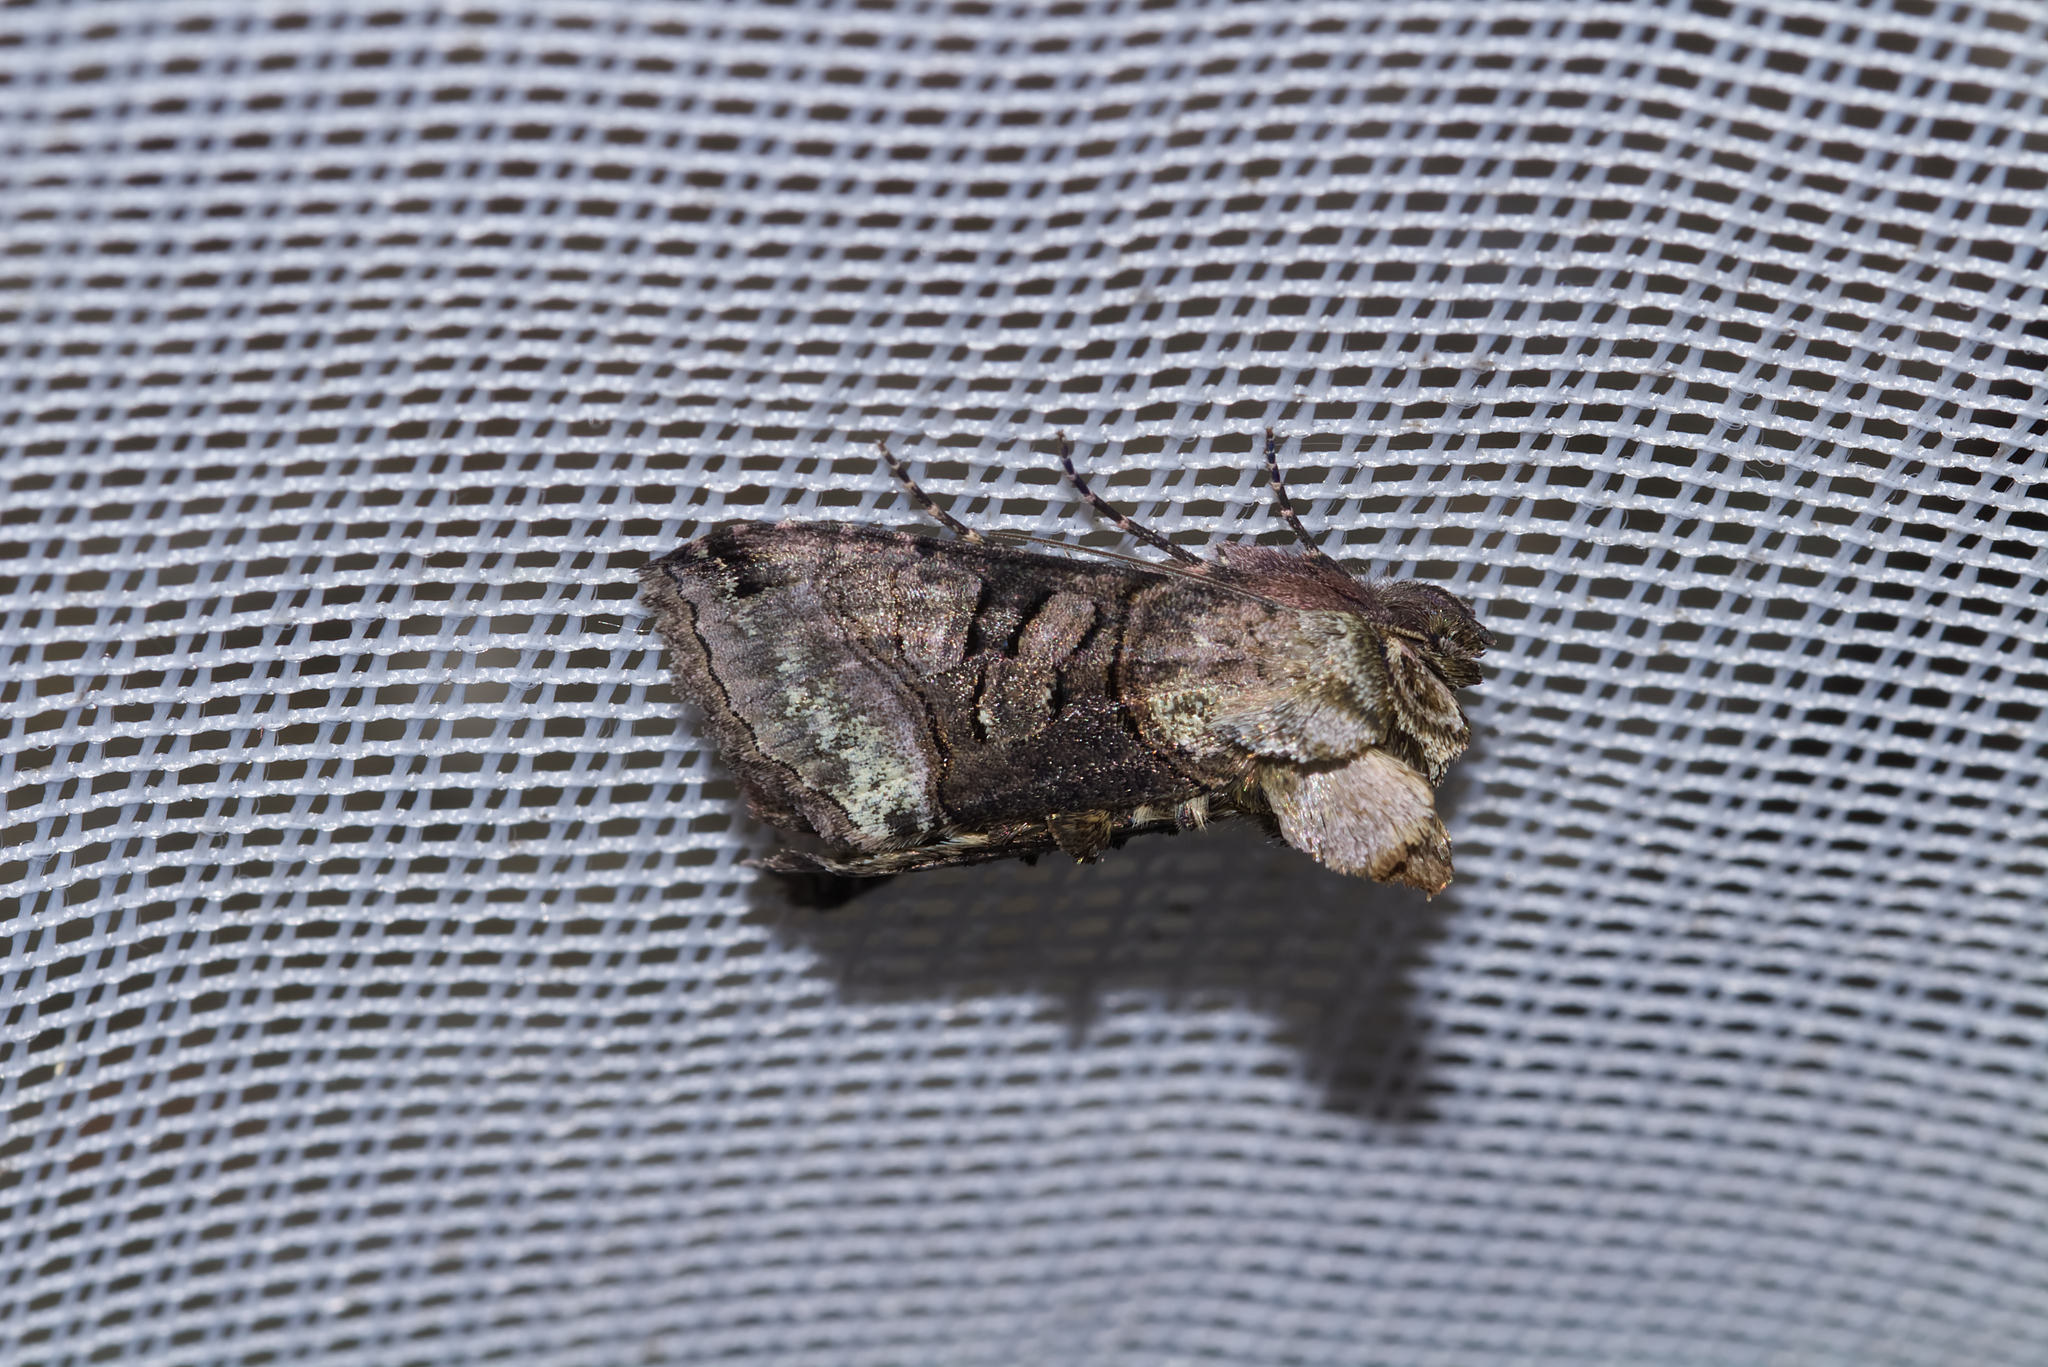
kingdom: Animalia
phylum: Arthropoda
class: Insecta
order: Lepidoptera
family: Noctuidae
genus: Abrostola
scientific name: Abrostola tripartita
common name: Spectacle
